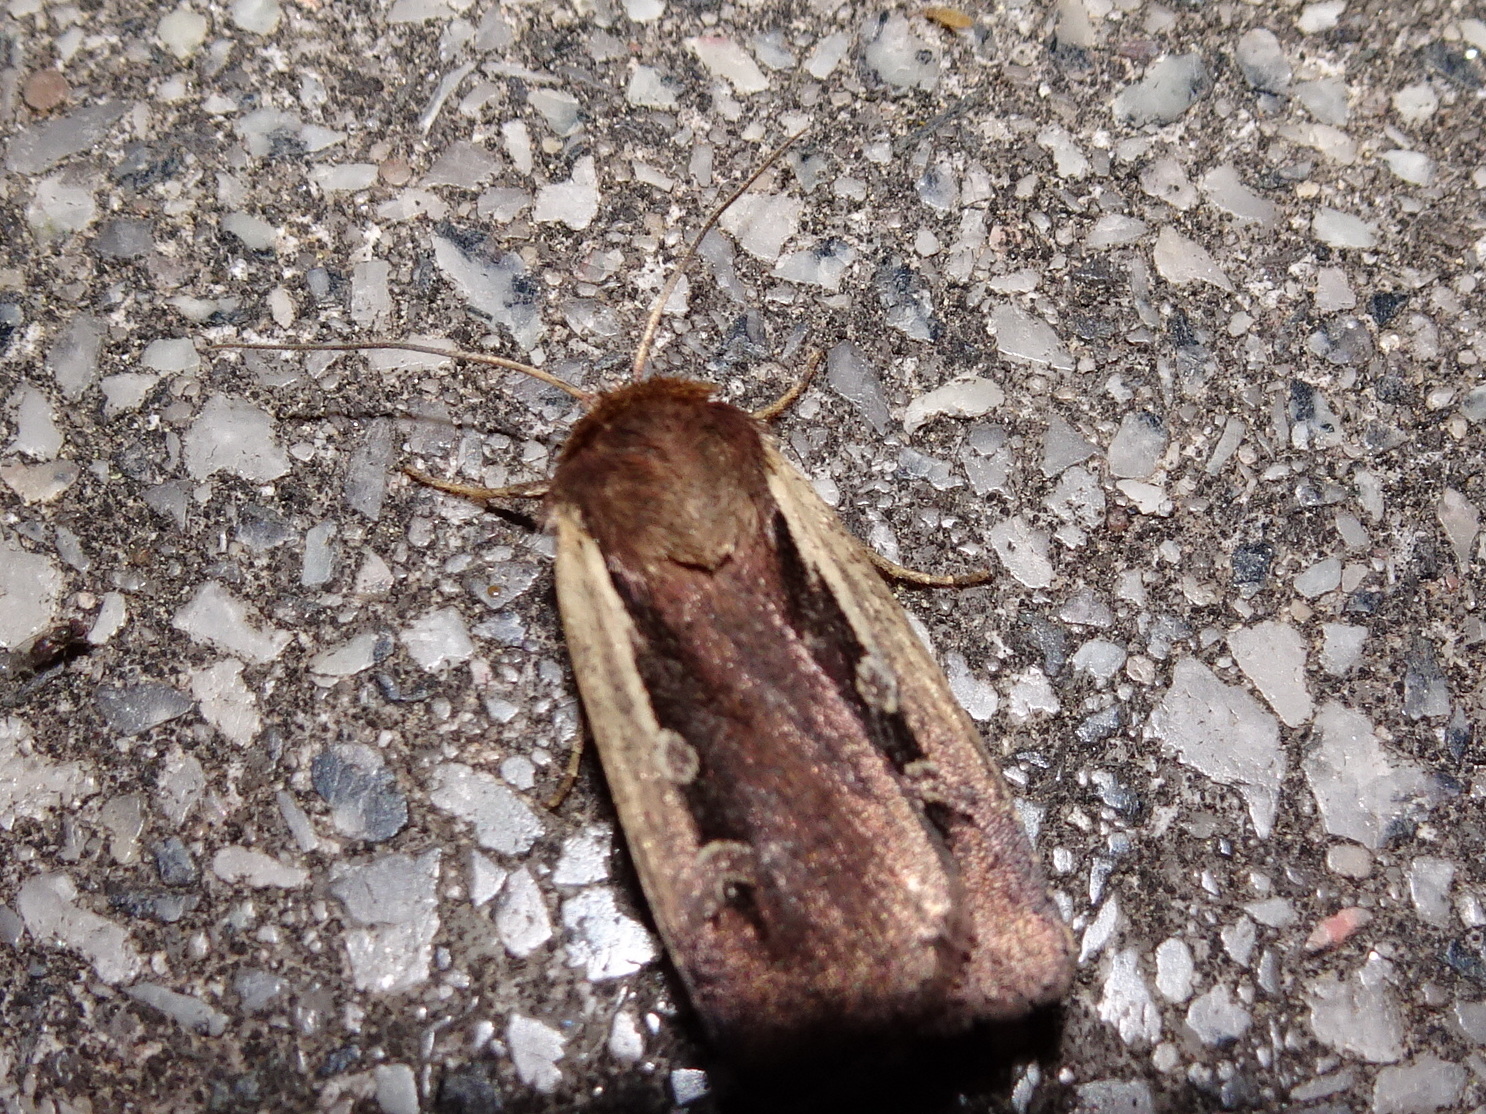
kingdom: Animalia
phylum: Arthropoda
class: Insecta
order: Lepidoptera
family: Noctuidae
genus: Ochropleura
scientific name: Ochropleura plecta
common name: Flame shoulder
